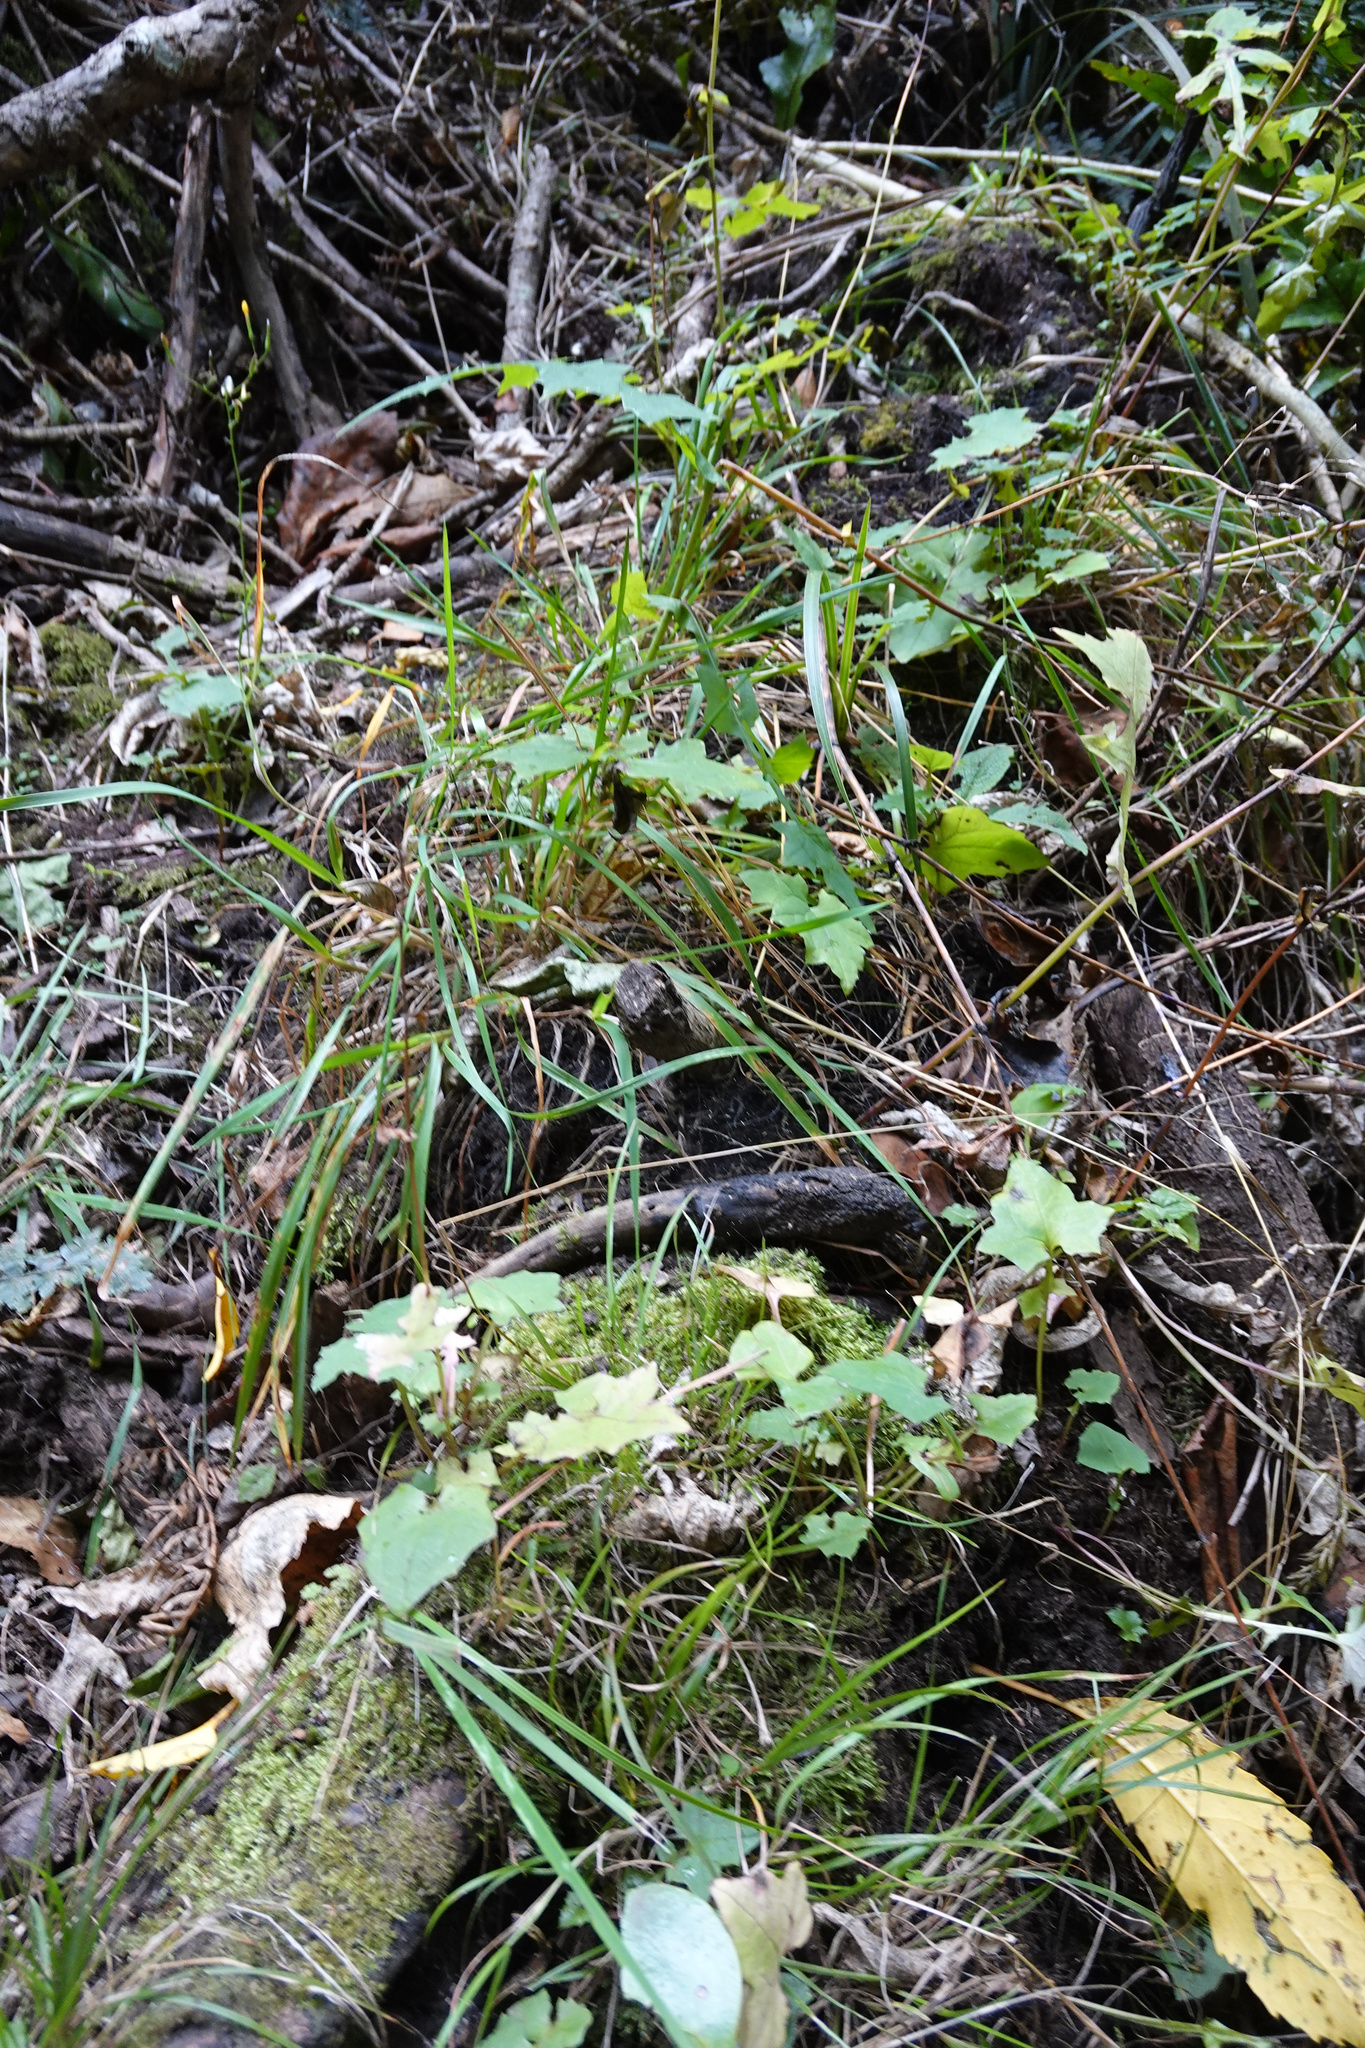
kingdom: Plantae
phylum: Tracheophyta
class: Magnoliopsida
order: Asterales
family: Asteraceae
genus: Mycelis
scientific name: Mycelis muralis
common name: Wall lettuce
